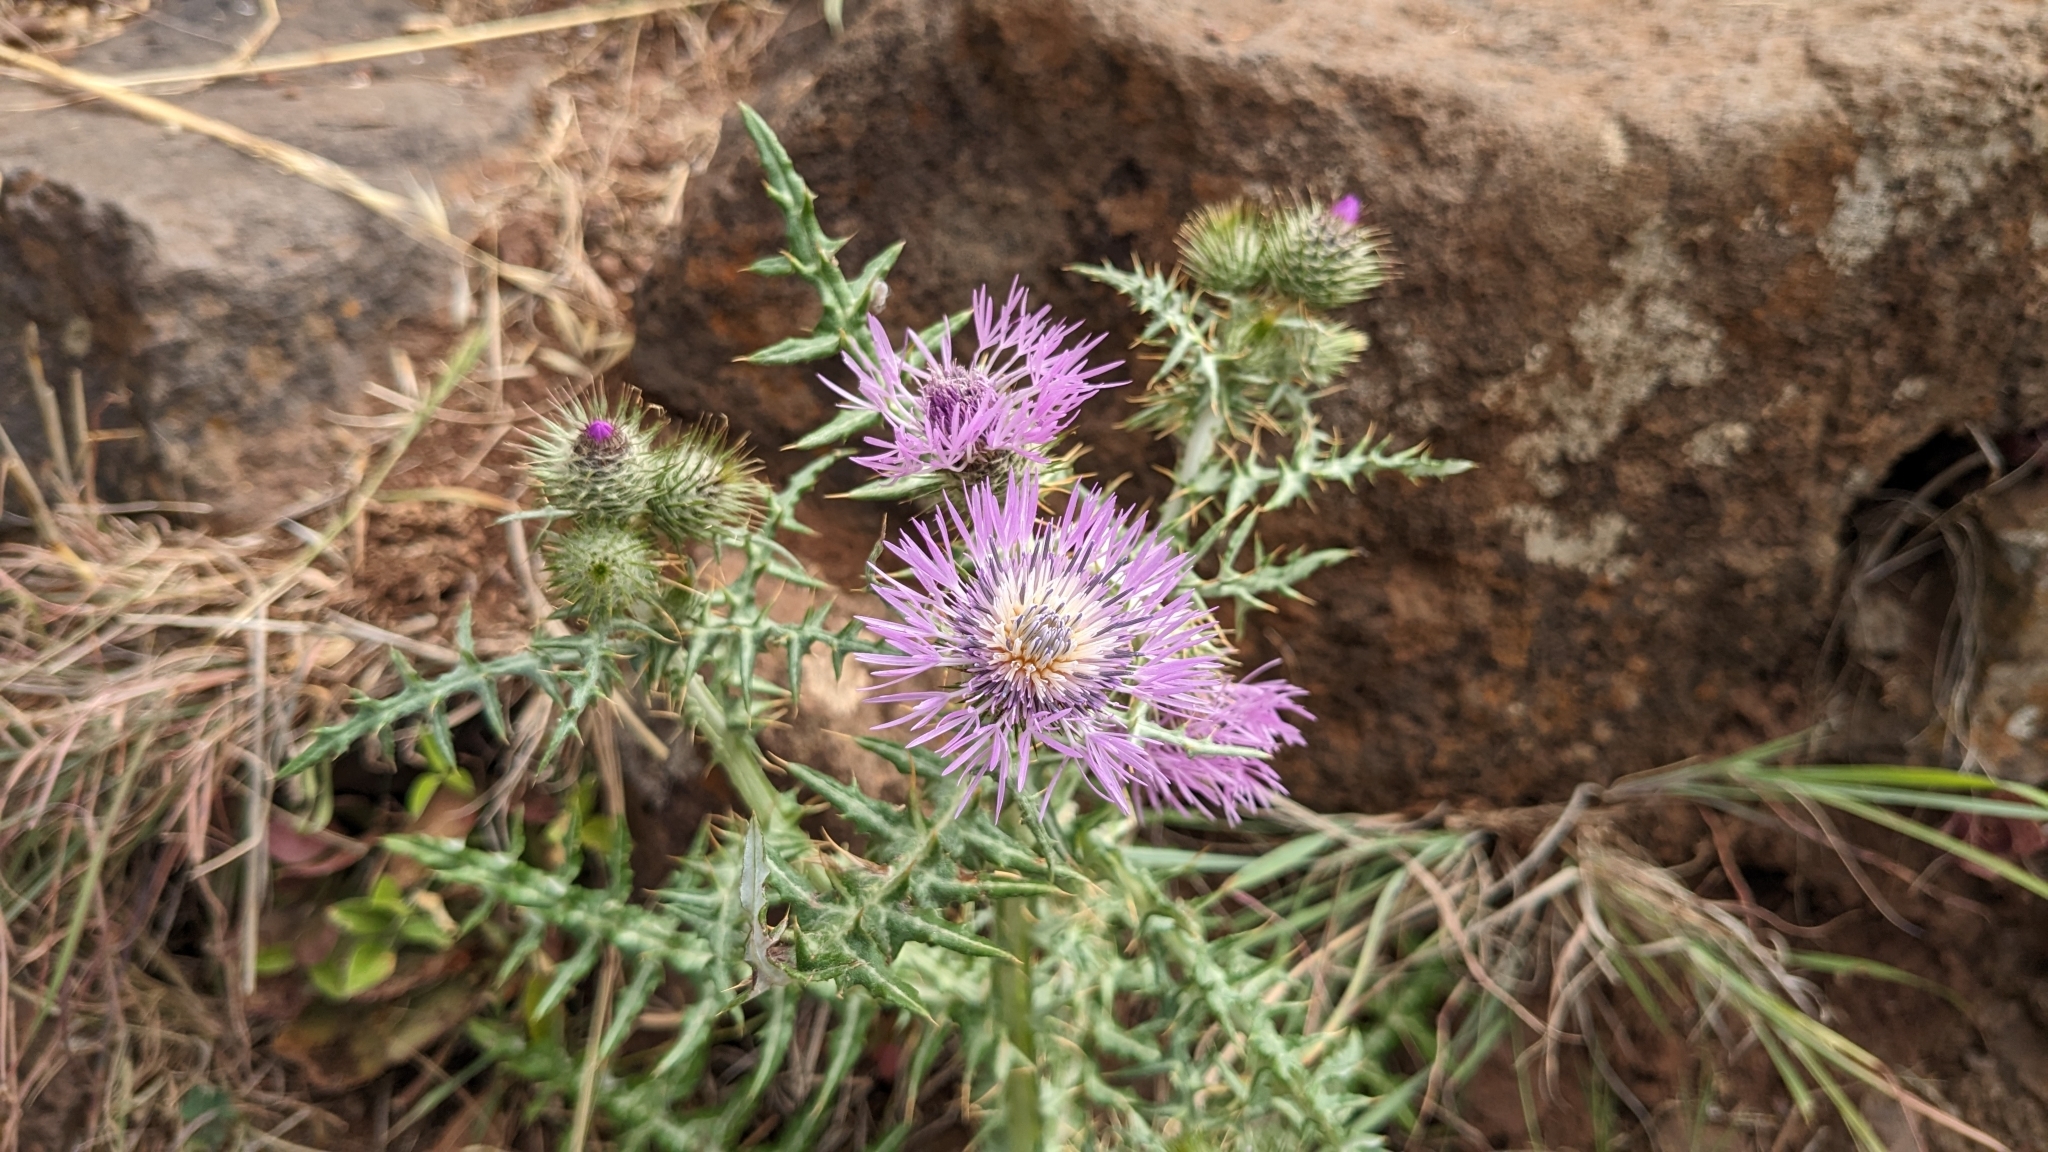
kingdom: Plantae
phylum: Tracheophyta
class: Magnoliopsida
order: Asterales
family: Asteraceae
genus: Galactites
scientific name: Galactites tomentosa
